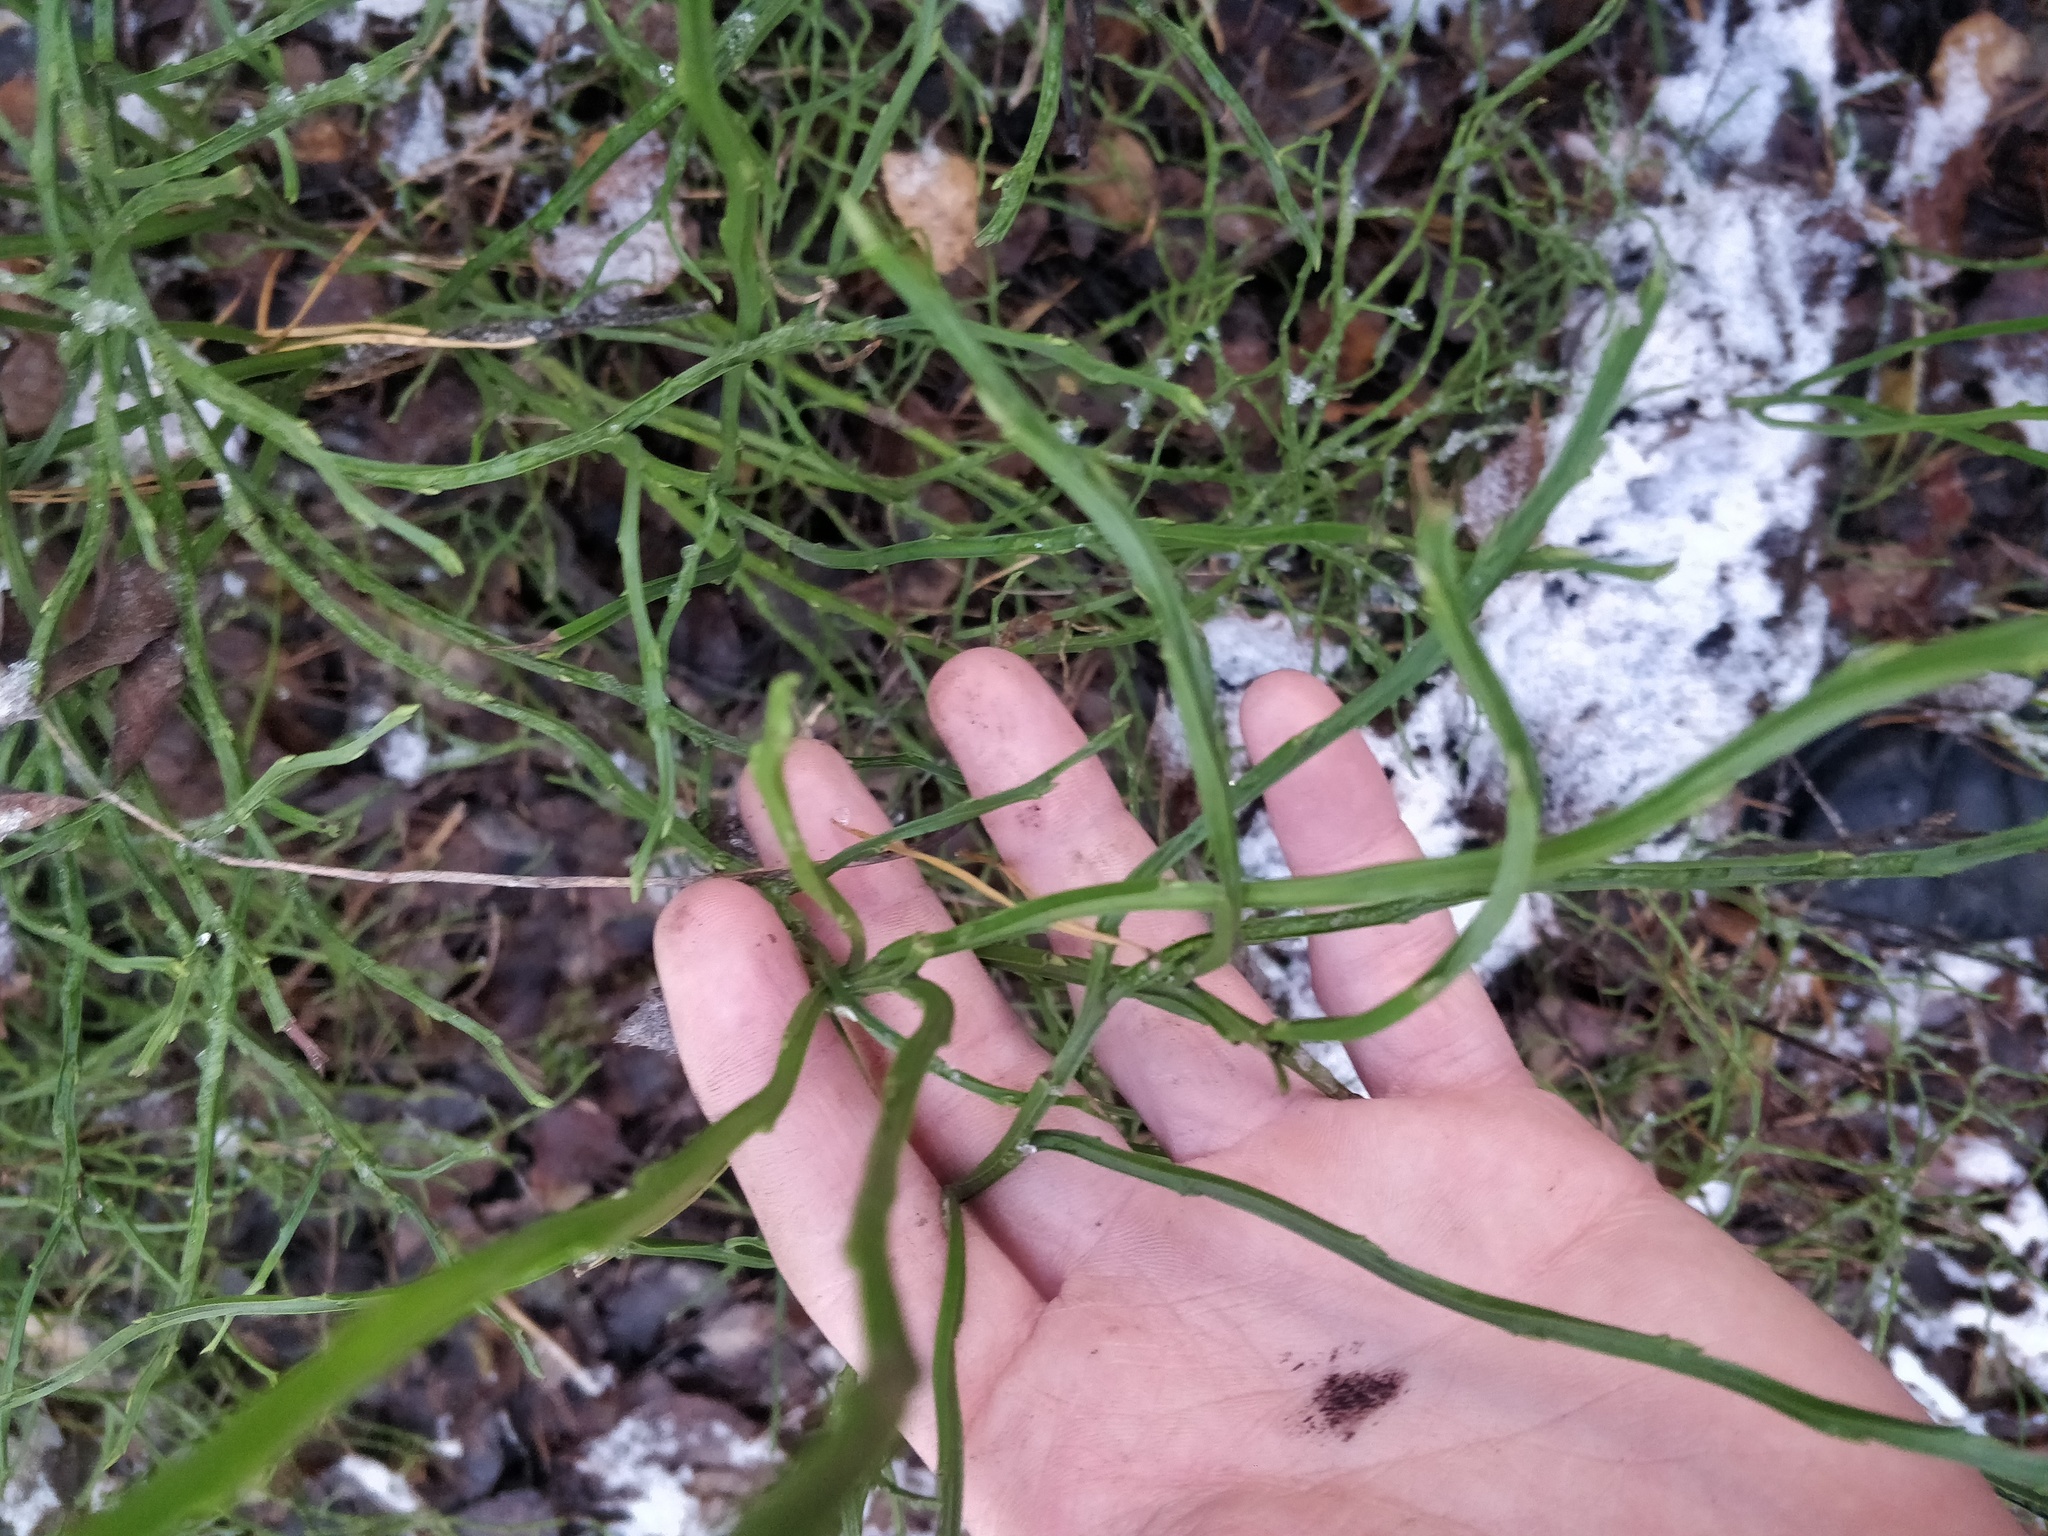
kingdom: Plantae
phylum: Tracheophyta
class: Magnoliopsida
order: Ericales
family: Ericaceae
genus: Vaccinium
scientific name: Vaccinium myrtillus
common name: Bilberry
